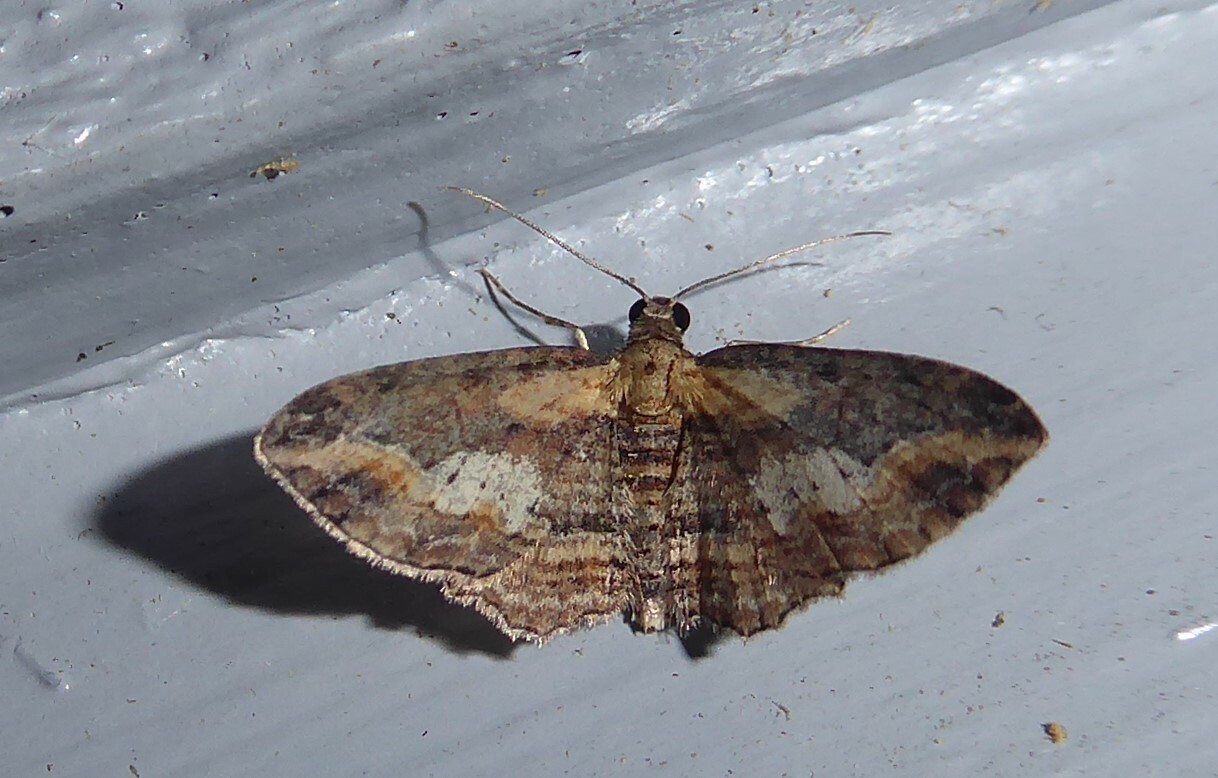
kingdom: Animalia
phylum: Arthropoda
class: Insecta
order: Lepidoptera
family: Geometridae
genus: Chloroclystis
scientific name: Chloroclystis filata
